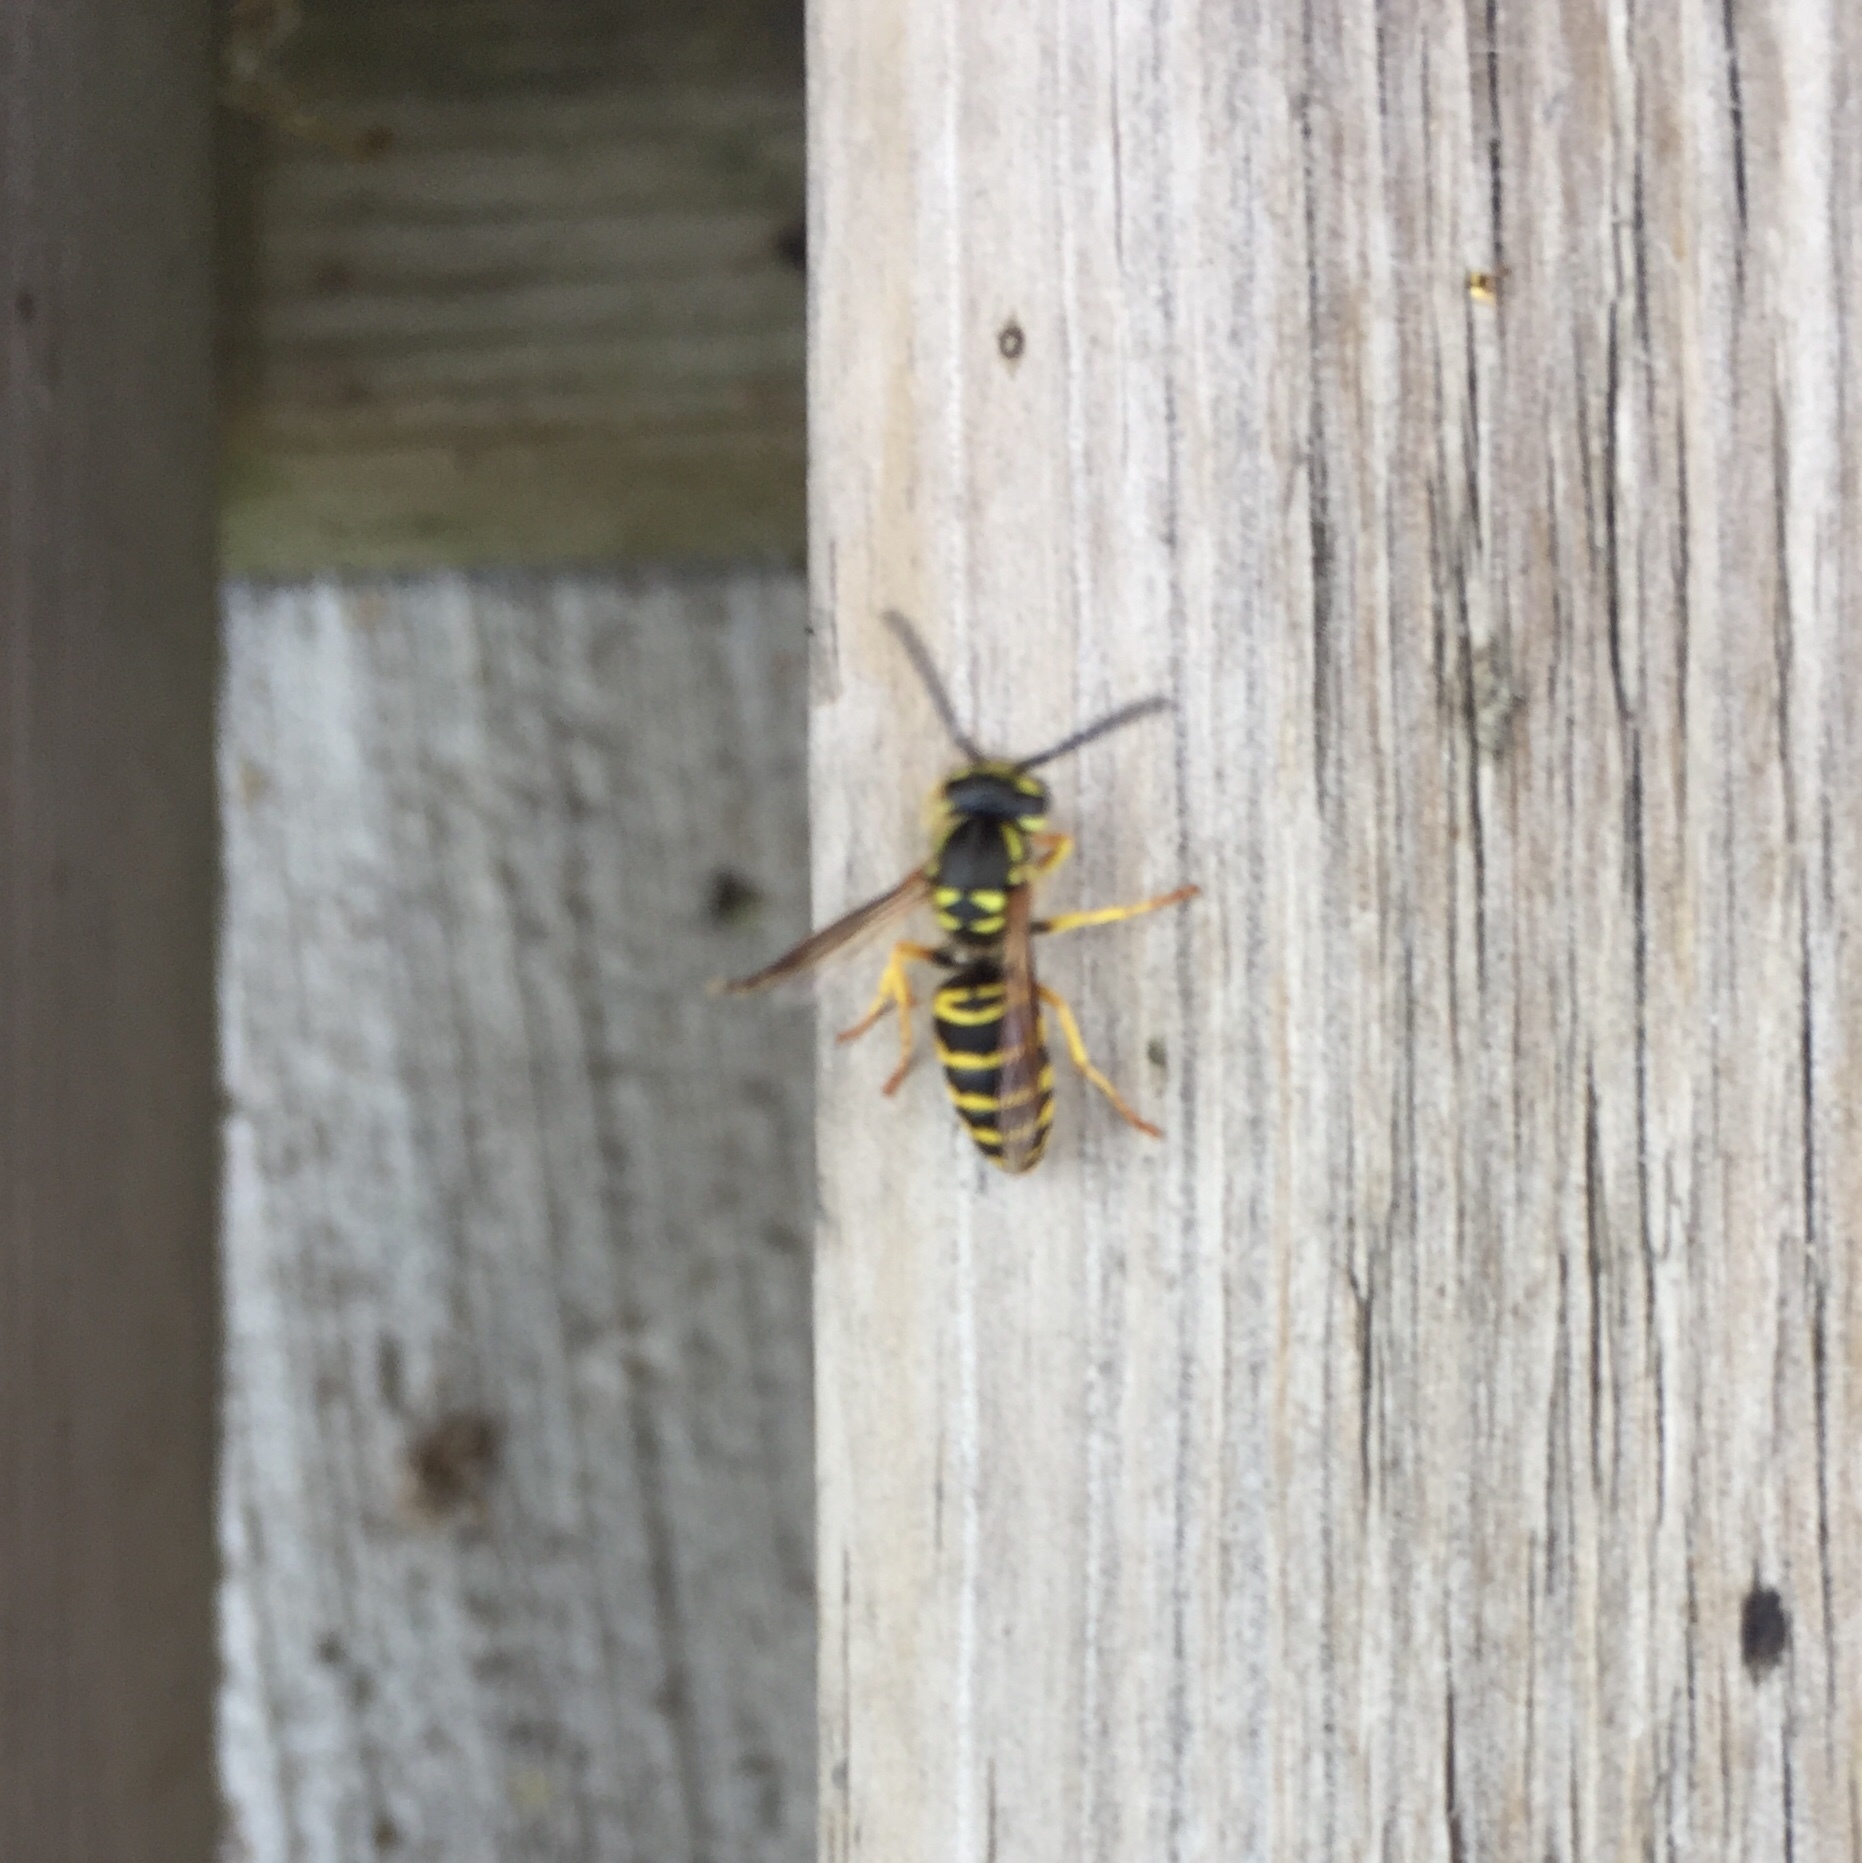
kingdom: Animalia
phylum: Arthropoda
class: Insecta
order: Hymenoptera
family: Vespidae
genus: Vespula
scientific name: Vespula maculifrons
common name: Eastern yellowjacket
